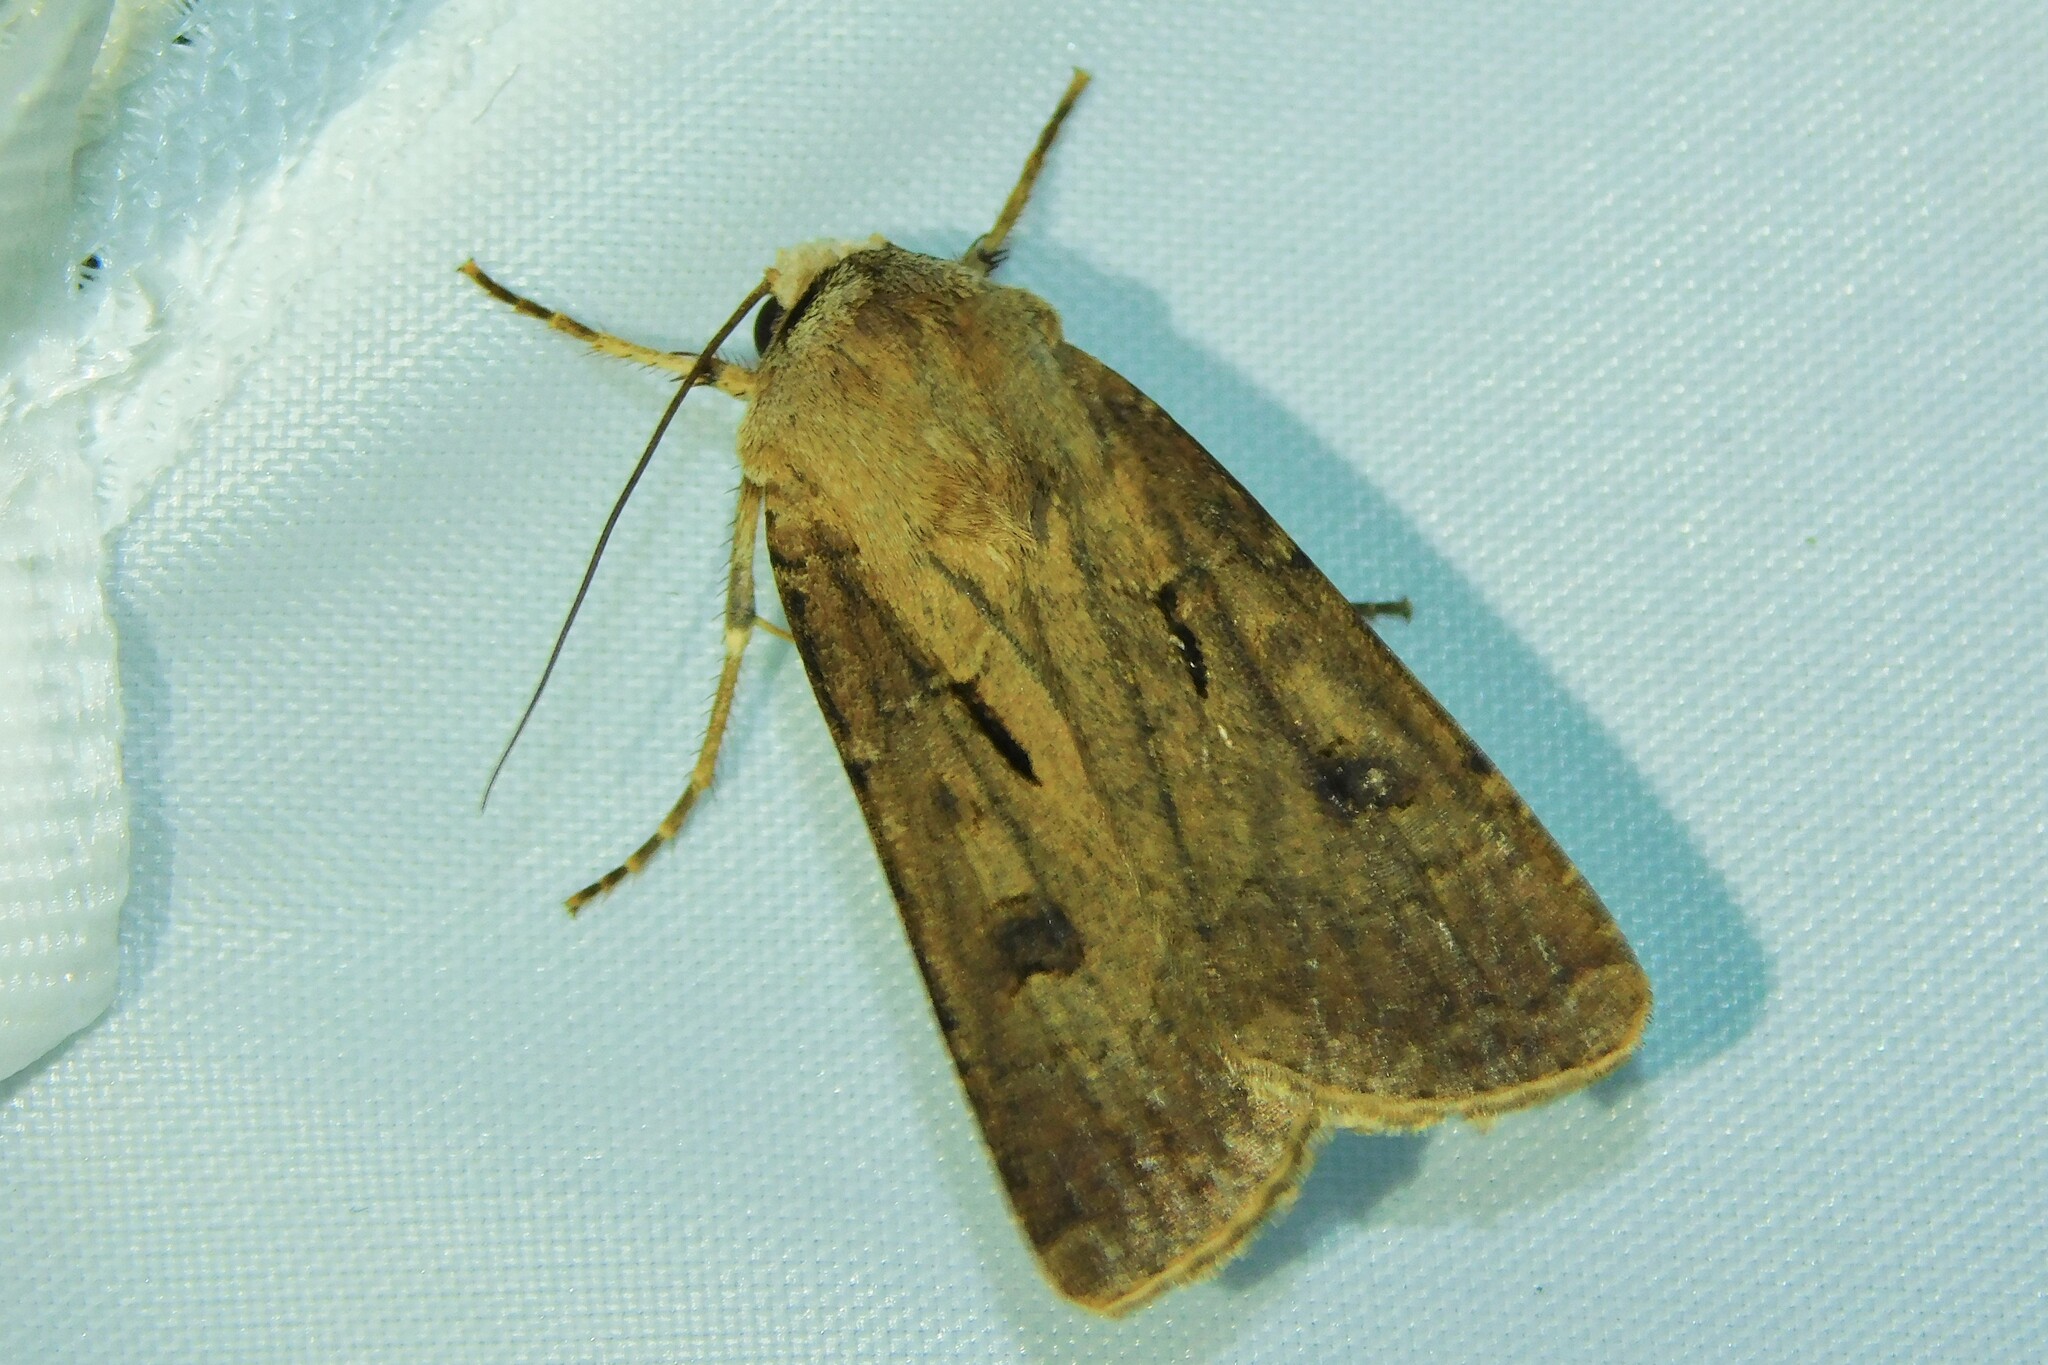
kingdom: Animalia
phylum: Arthropoda
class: Insecta
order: Lepidoptera
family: Noctuidae
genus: Agrotis
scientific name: Agrotis exclamationis
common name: Heart and dart
